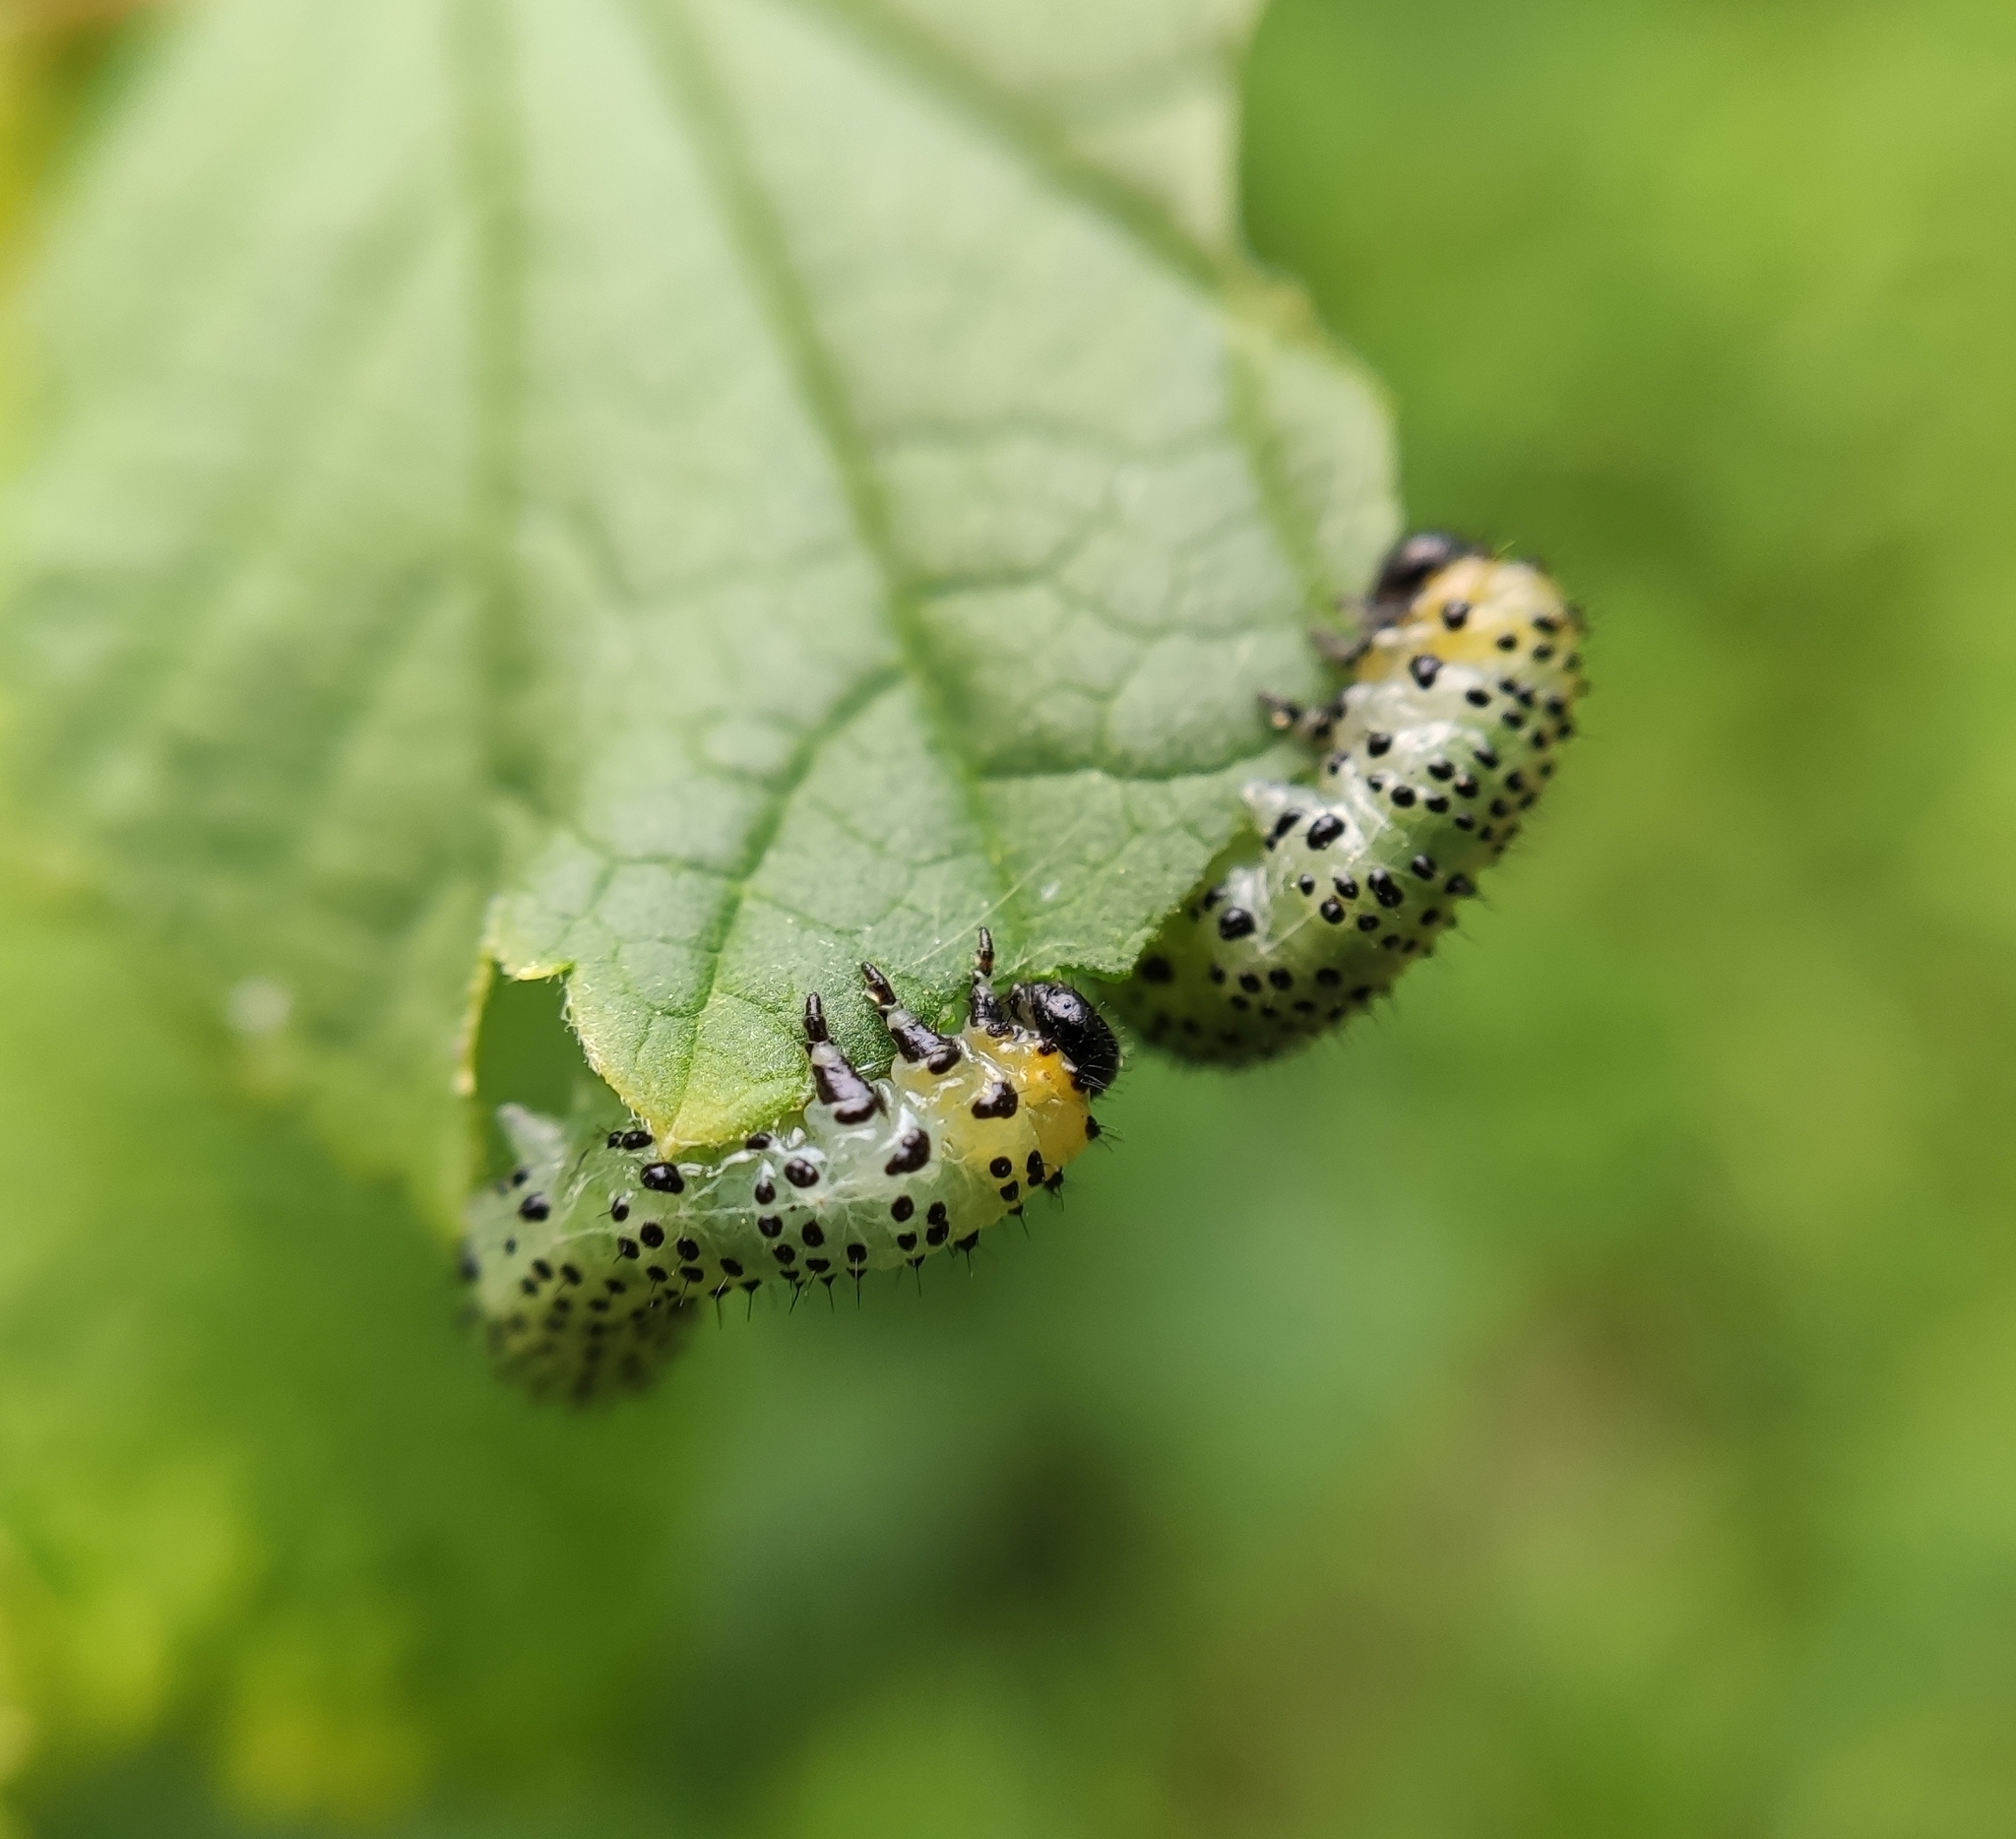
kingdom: Animalia
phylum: Arthropoda
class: Insecta
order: Hymenoptera
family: Tenthredinidae
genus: Nematus
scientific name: Nematus ribesii
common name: Imported currantworm
